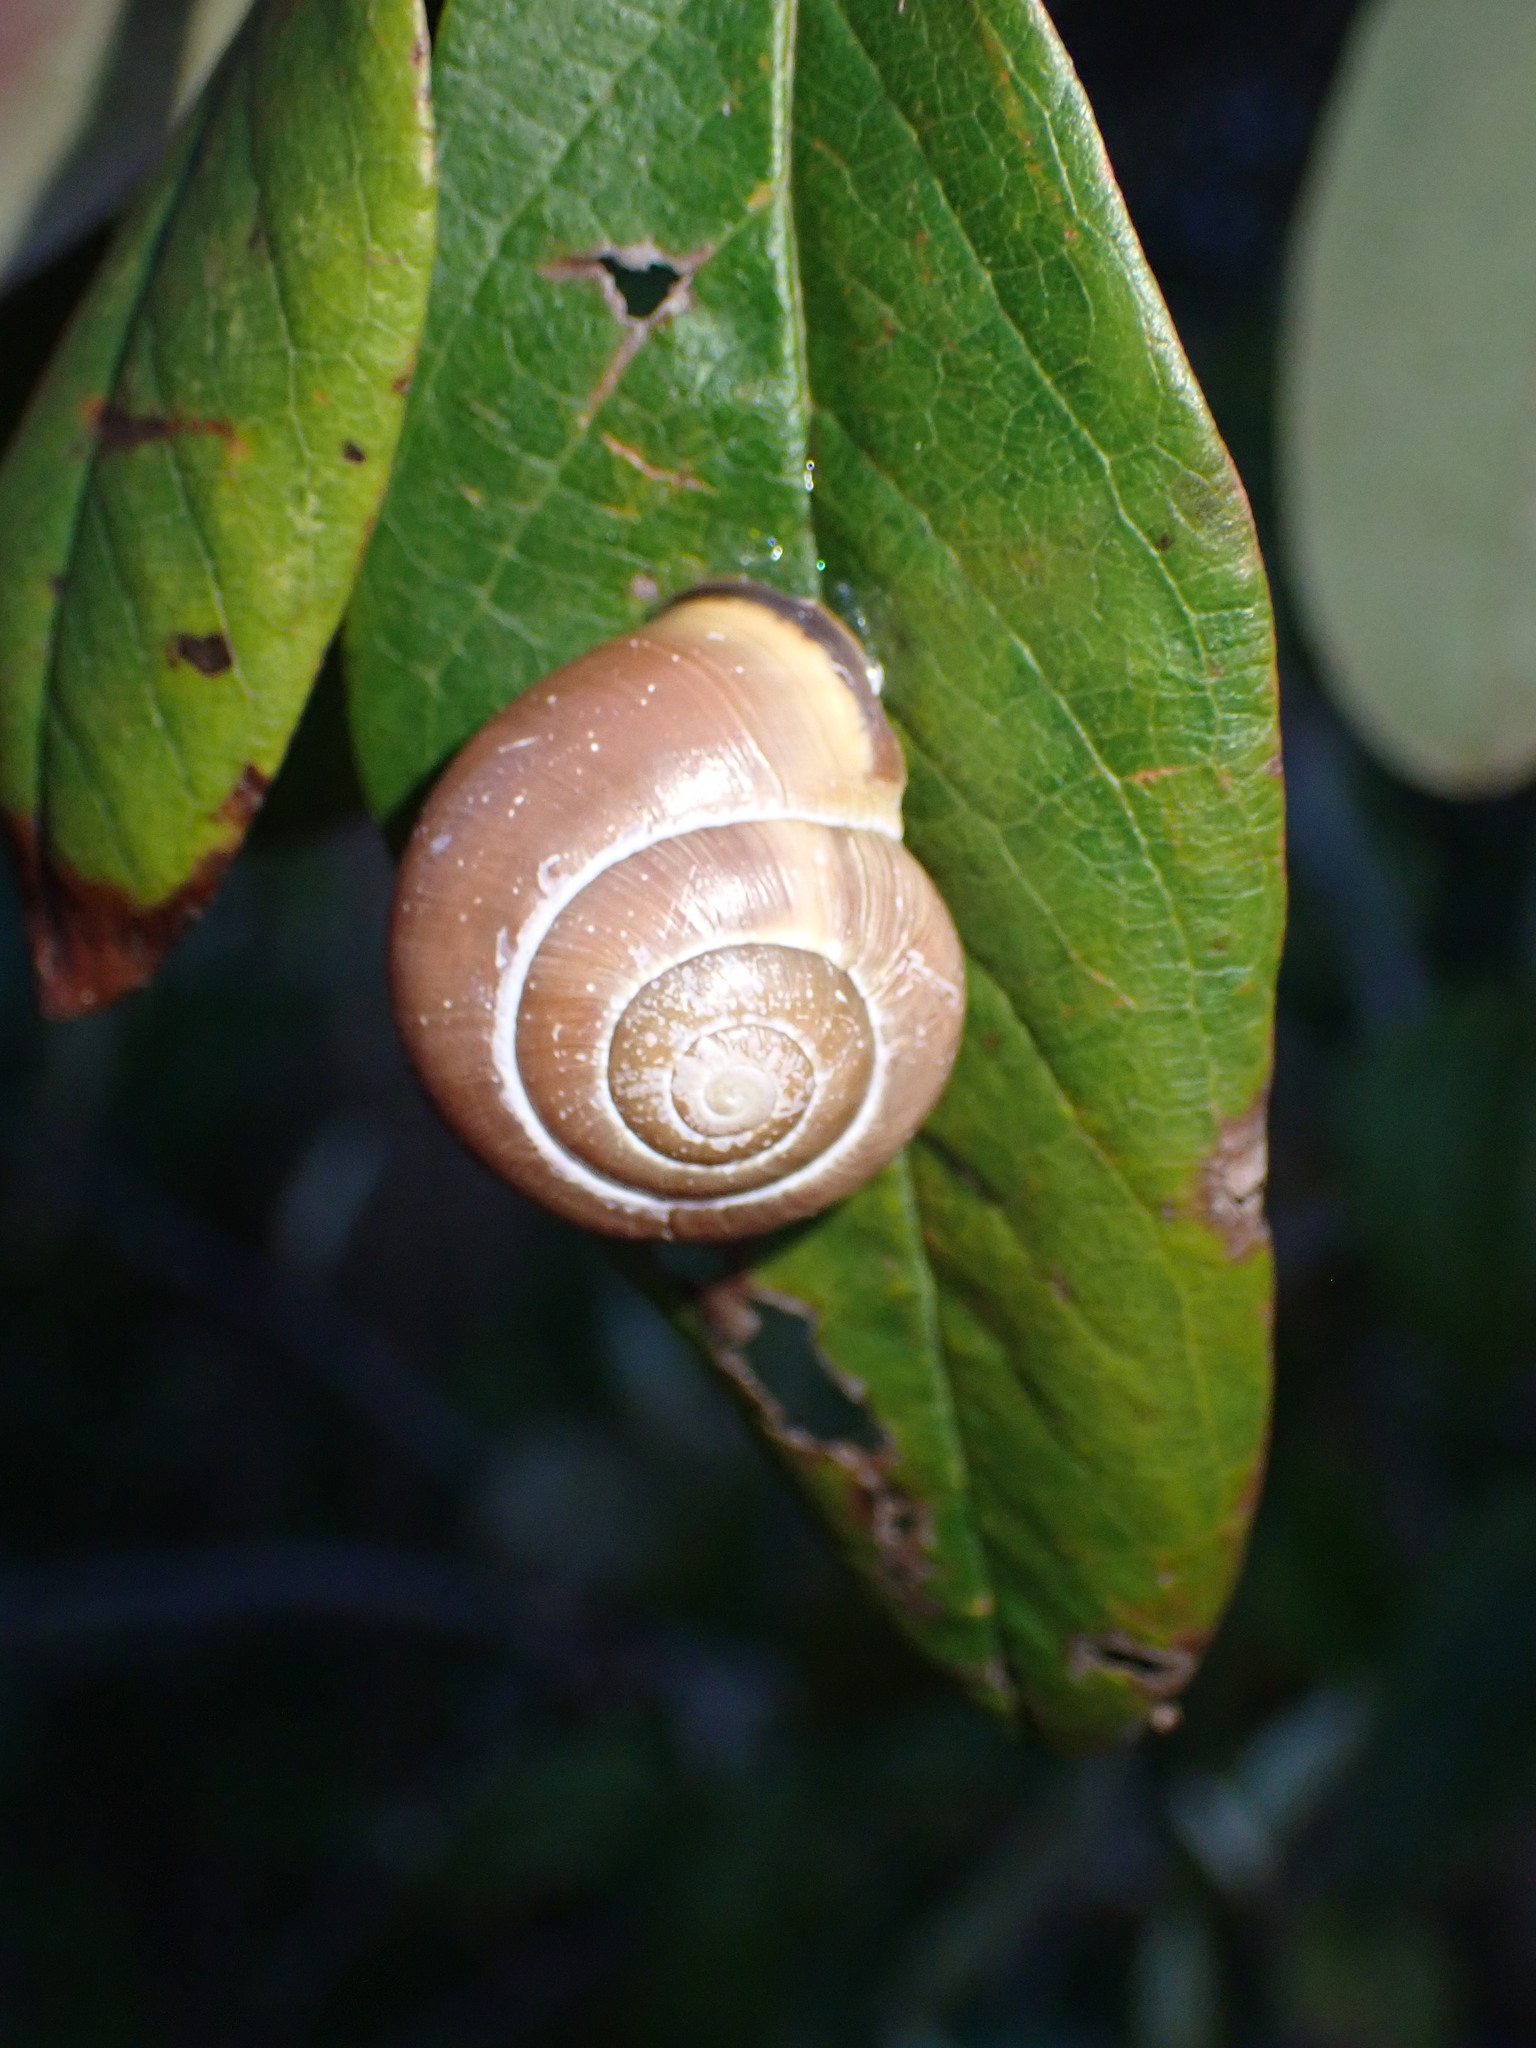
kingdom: Animalia
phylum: Mollusca
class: Gastropoda
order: Stylommatophora
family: Helicidae
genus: Cepaea
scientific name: Cepaea nemoralis
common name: Grovesnail
